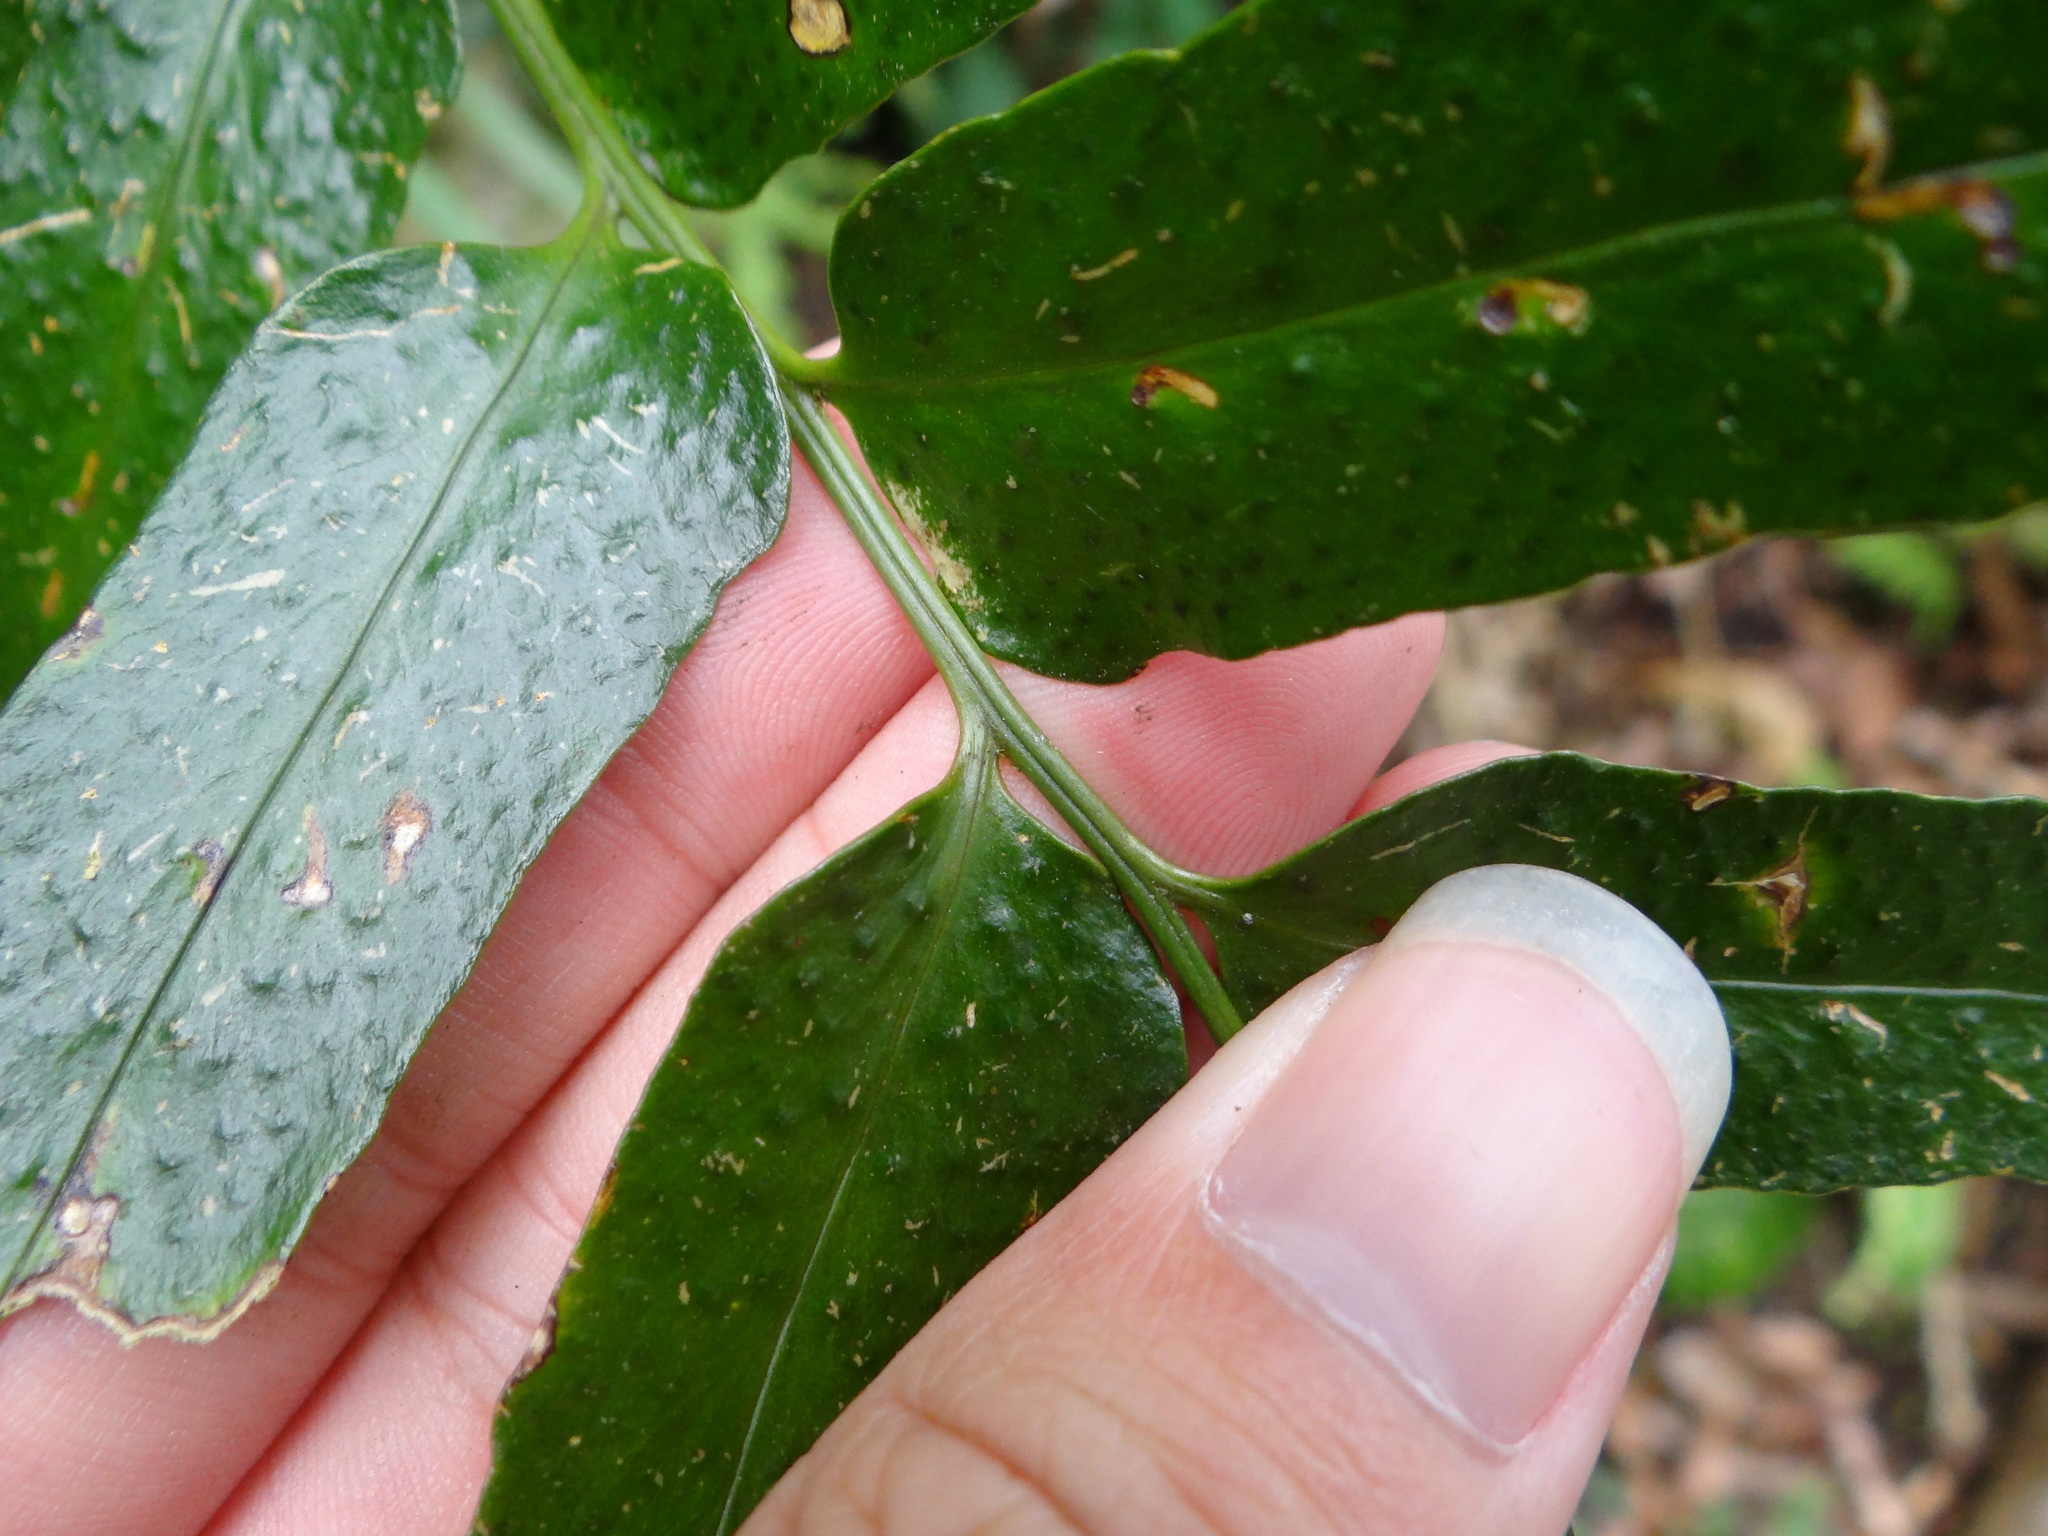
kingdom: Plantae
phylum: Tracheophyta
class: Polypodiopsida
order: Polypodiales
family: Dryopteridaceae
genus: Cyrtomium
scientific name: Cyrtomium devexiscapulae
